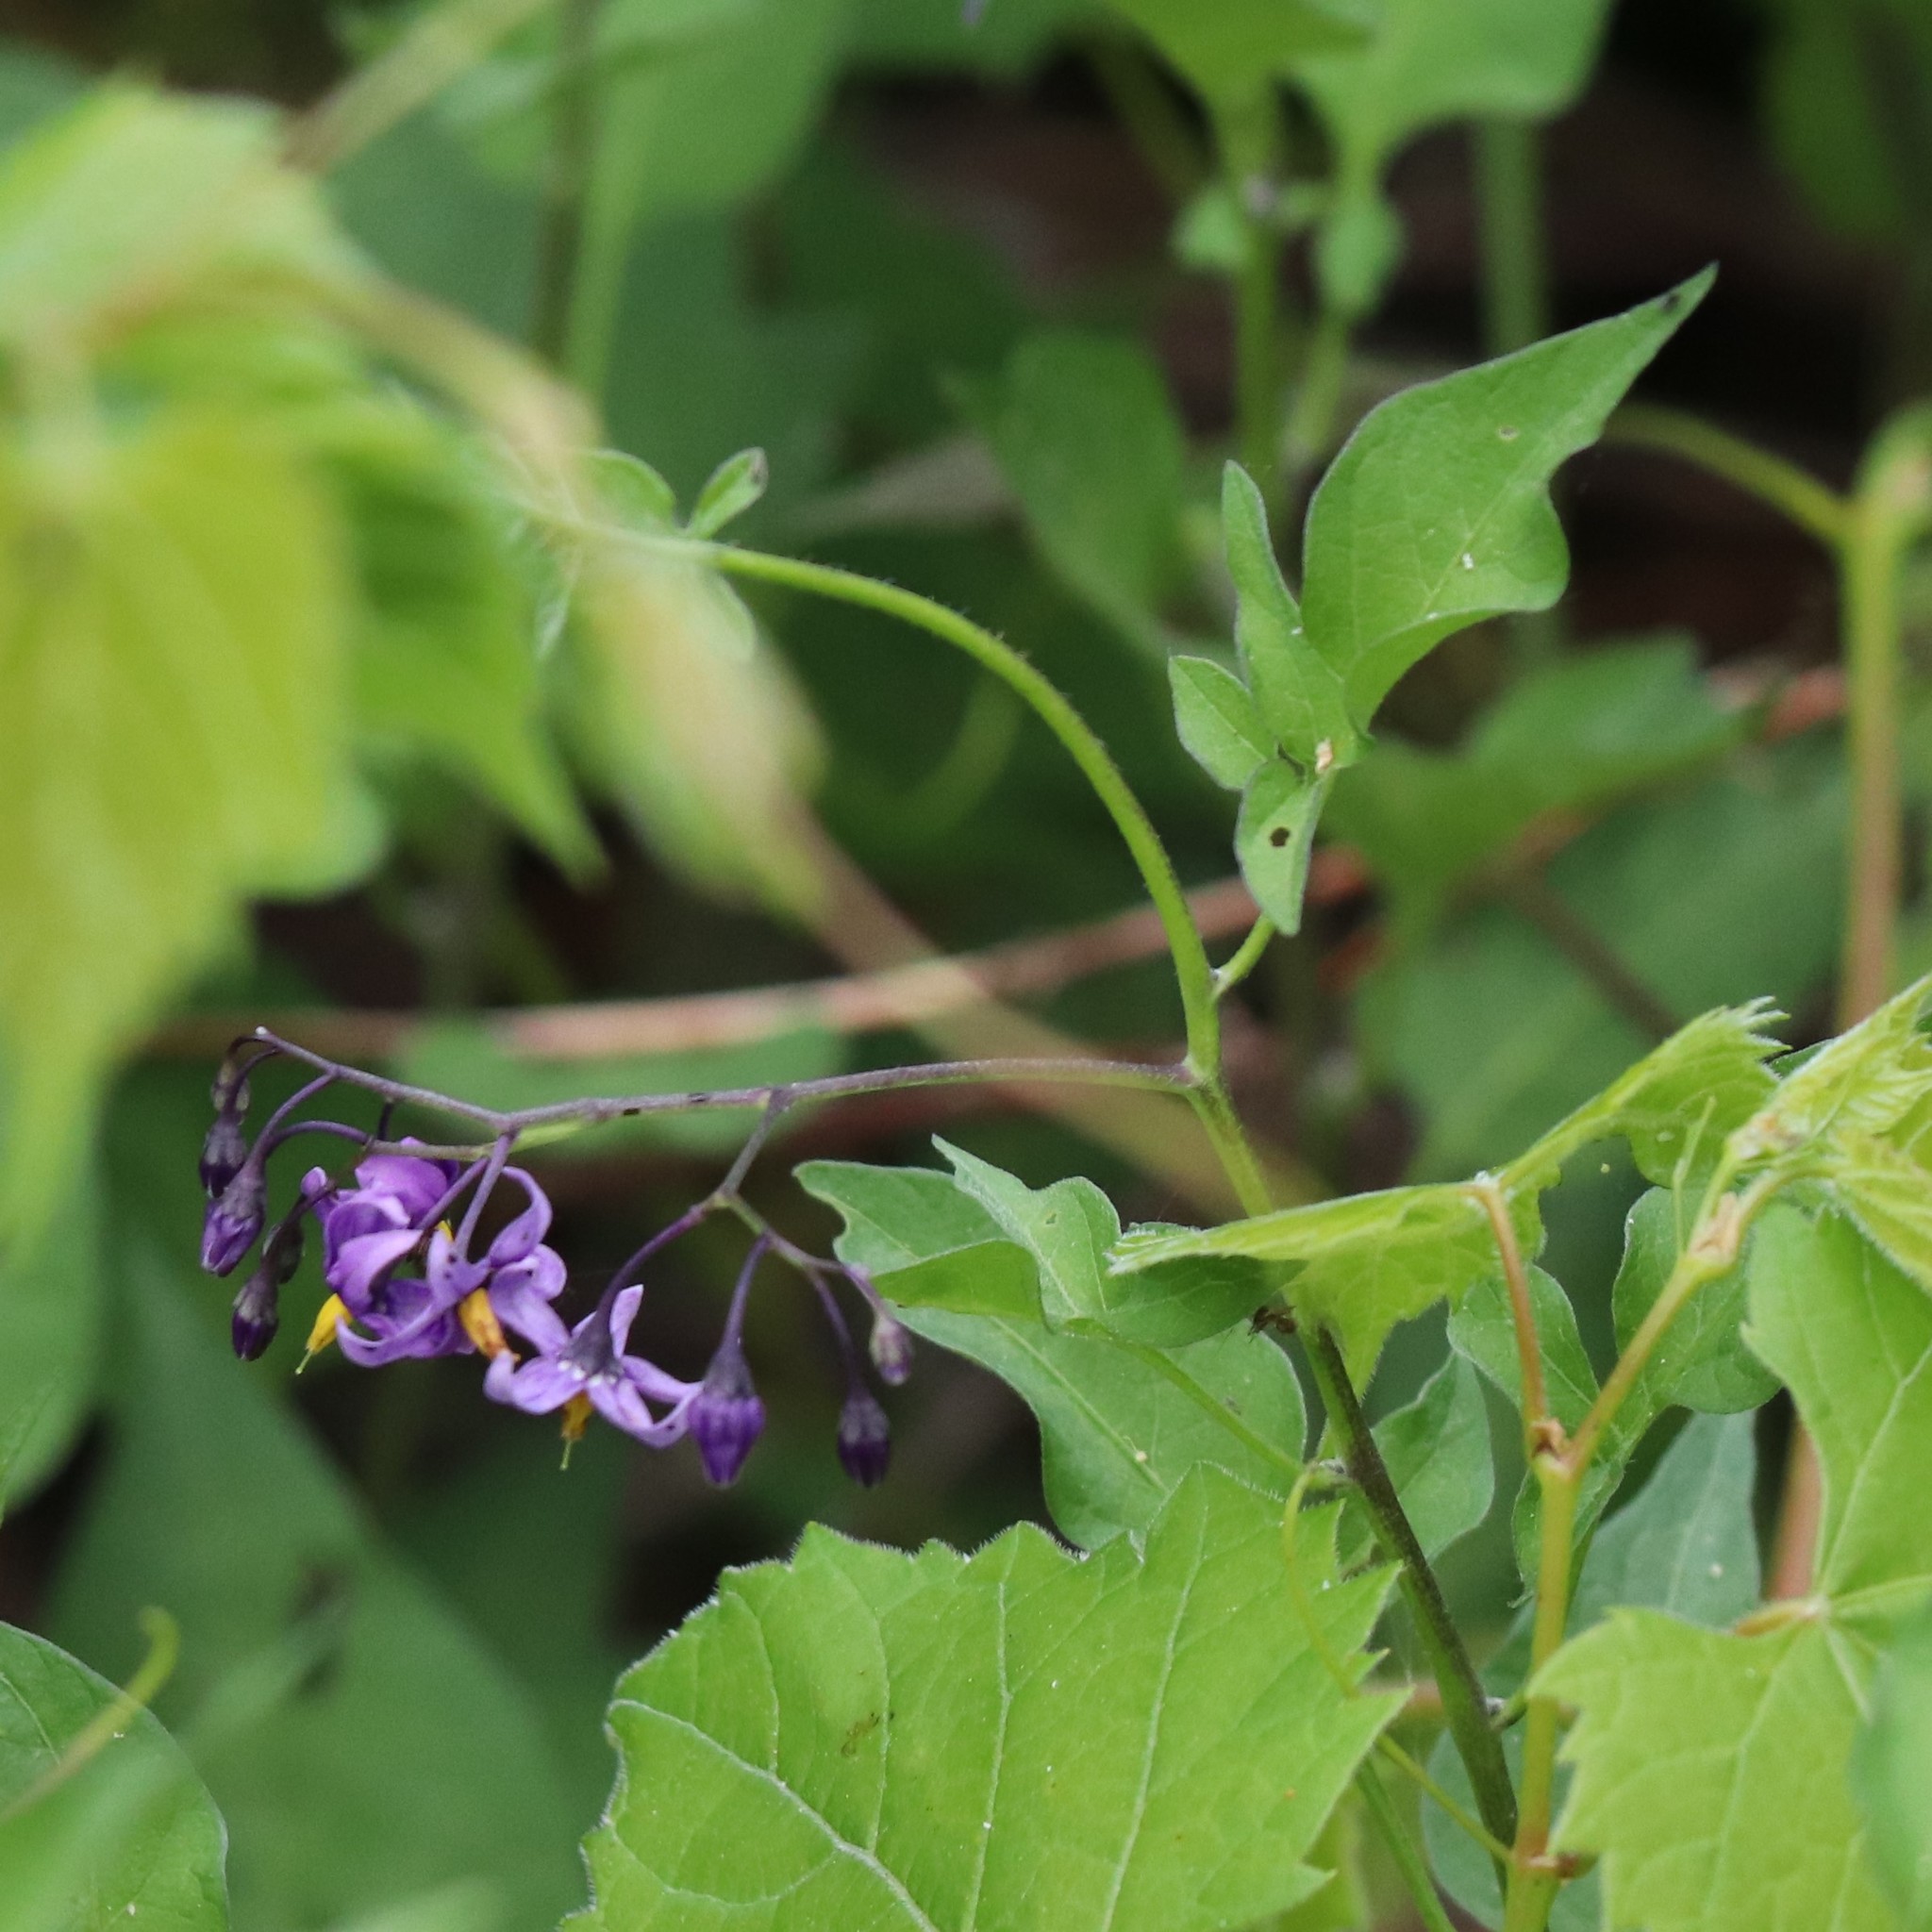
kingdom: Plantae
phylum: Tracheophyta
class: Magnoliopsida
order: Solanales
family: Solanaceae
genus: Solanum
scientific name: Solanum dulcamara
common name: Climbing nightshade
